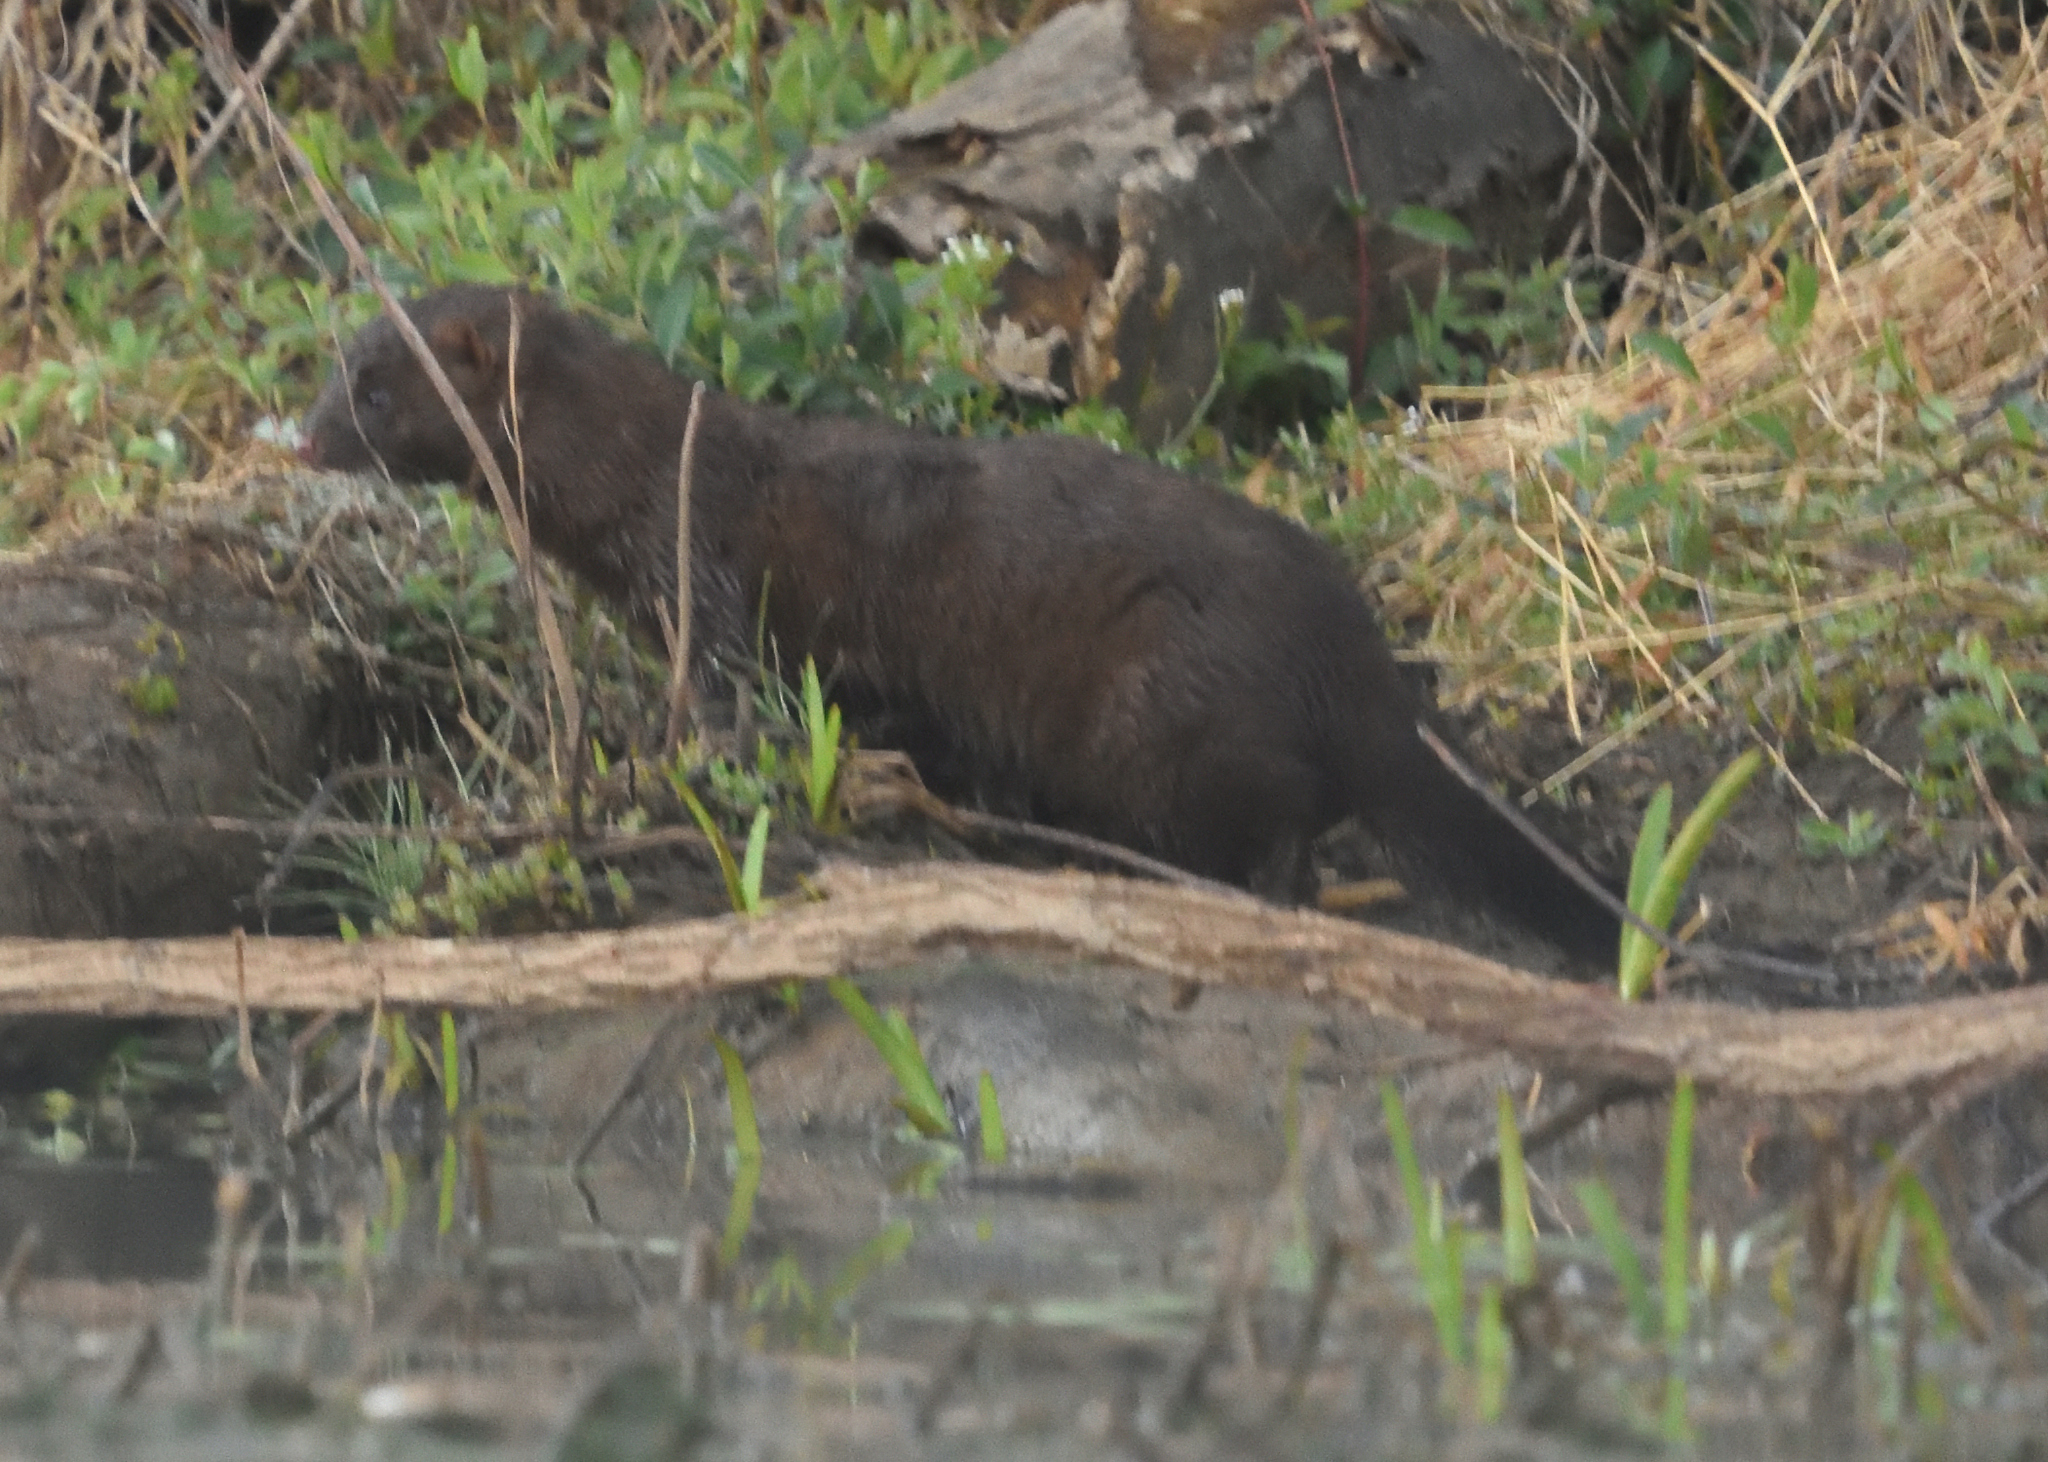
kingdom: Animalia
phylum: Chordata
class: Mammalia
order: Carnivora
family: Mustelidae
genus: Mustela
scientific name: Mustela
